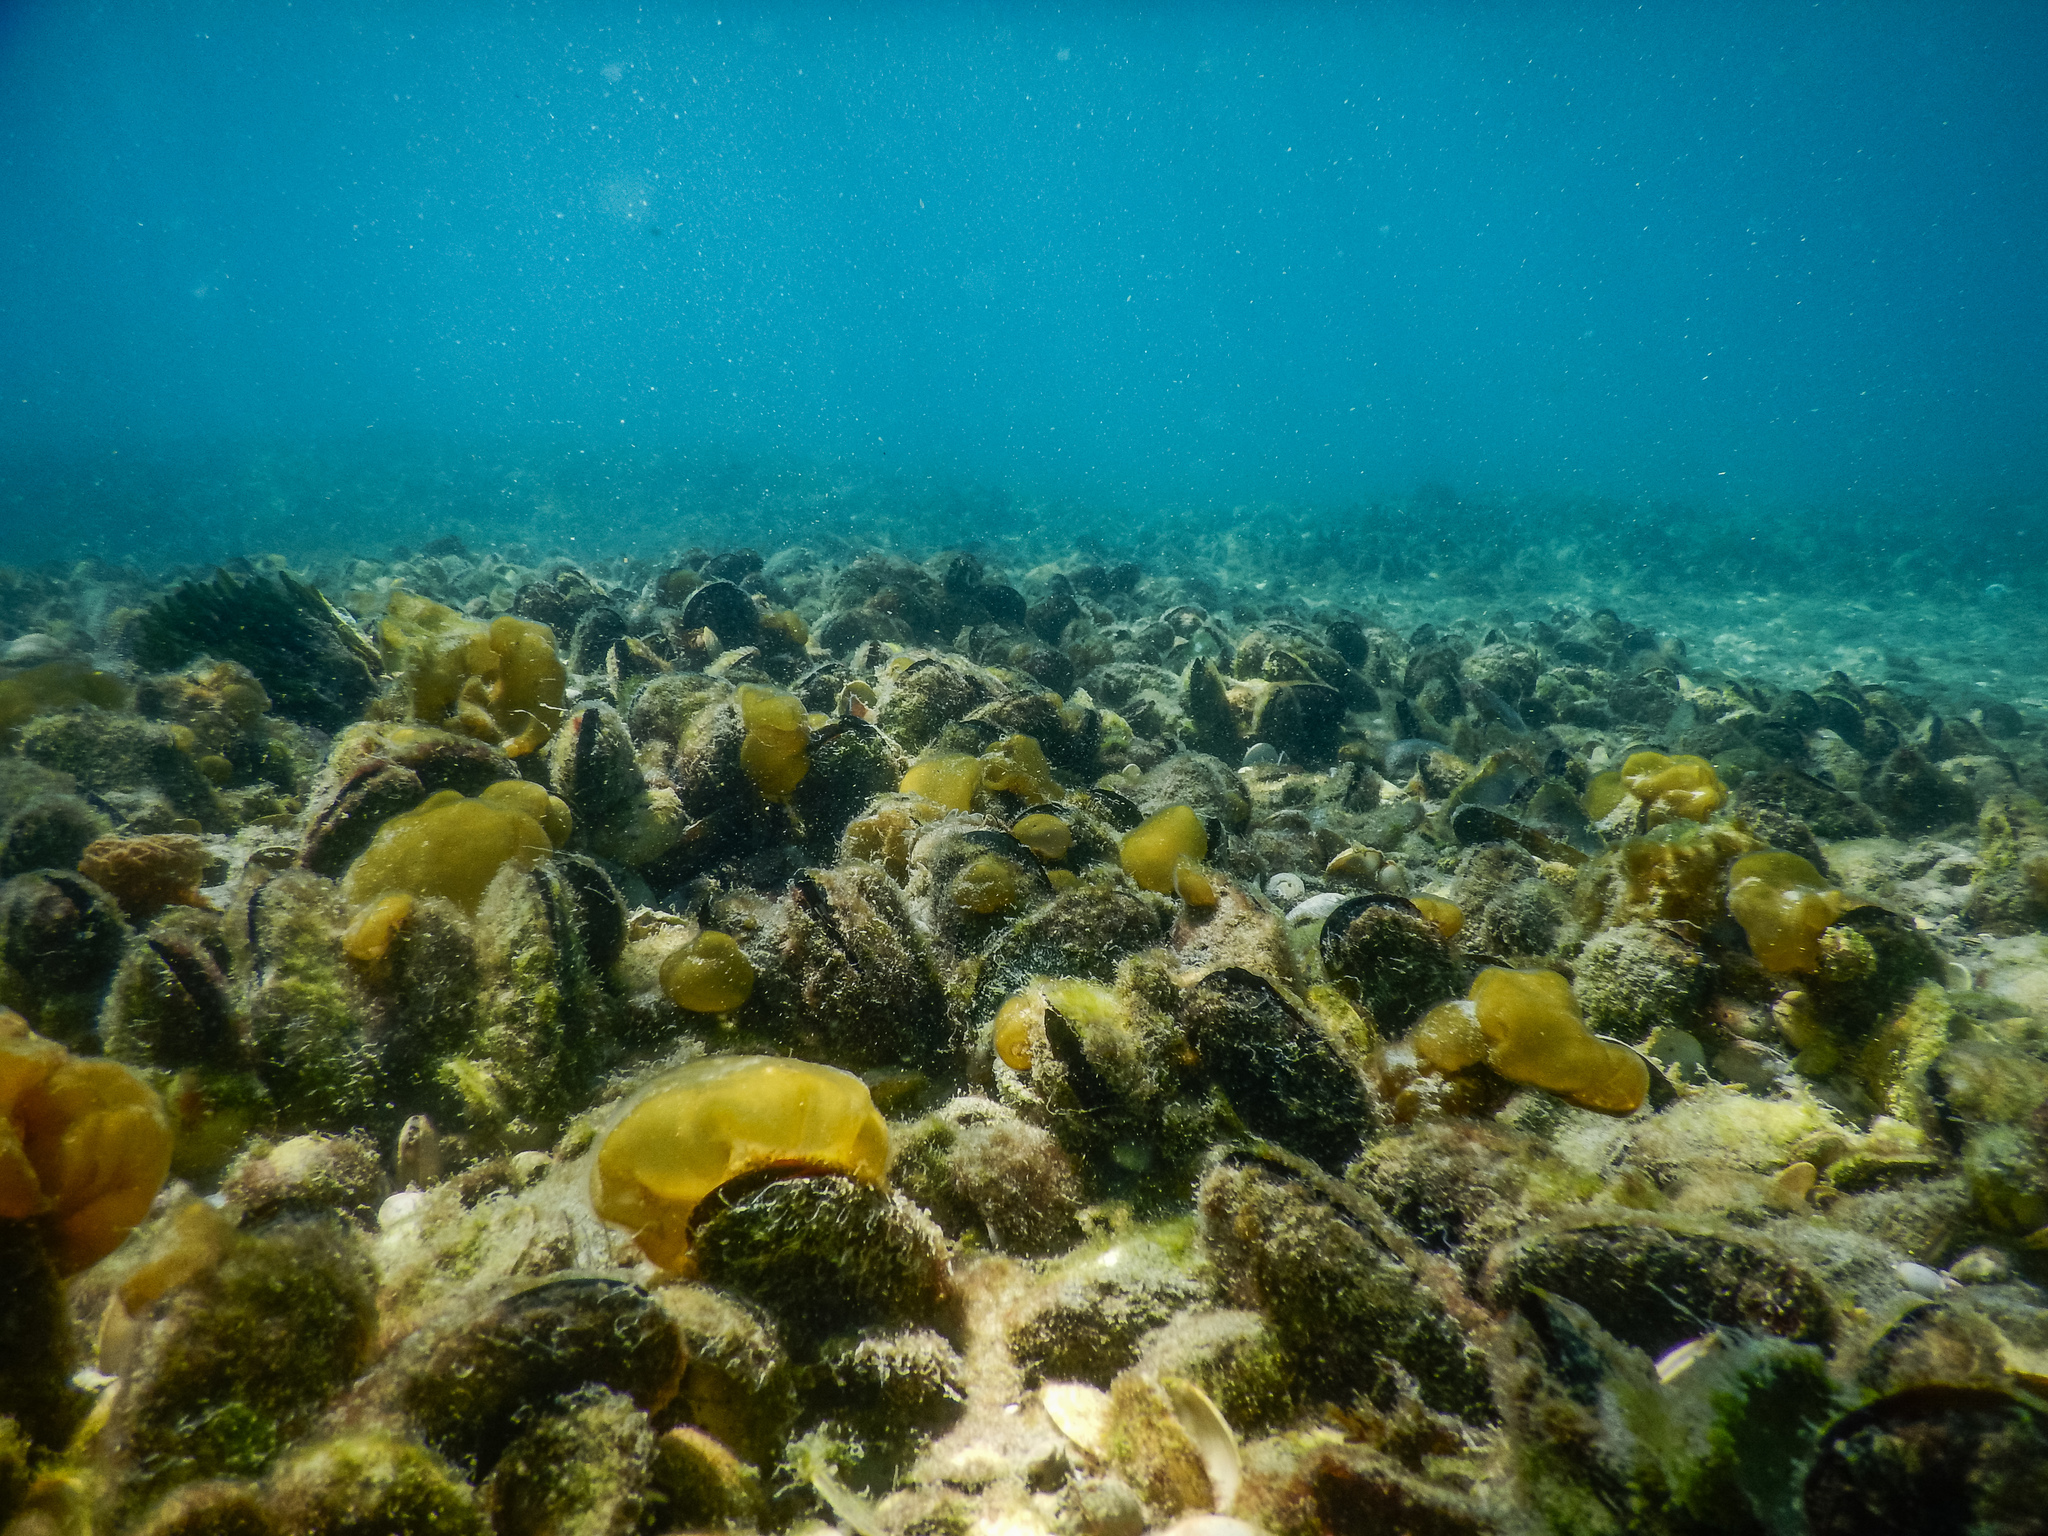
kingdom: Animalia
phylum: Mollusca
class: Bivalvia
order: Mytilida
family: Mytilidae
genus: Perna
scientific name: Perna canaliculus
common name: New zealand greenshelltm
